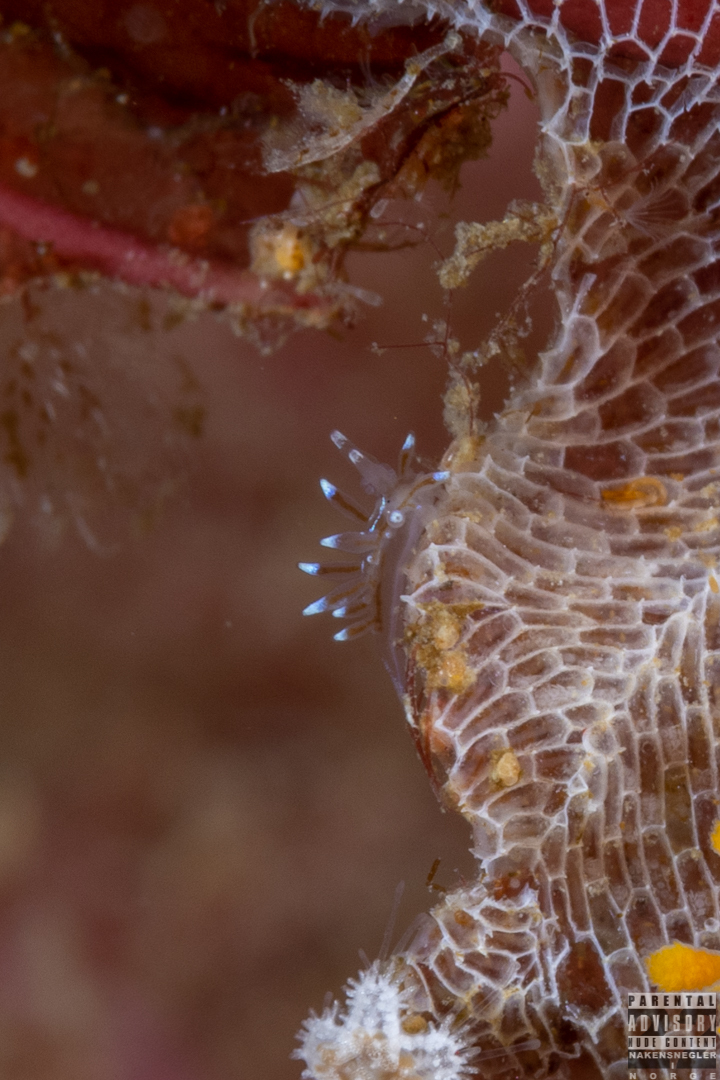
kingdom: Animalia
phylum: Mollusca
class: Gastropoda
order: Nudibranchia
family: Janolidae
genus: Antiopella
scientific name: Antiopella cristata
